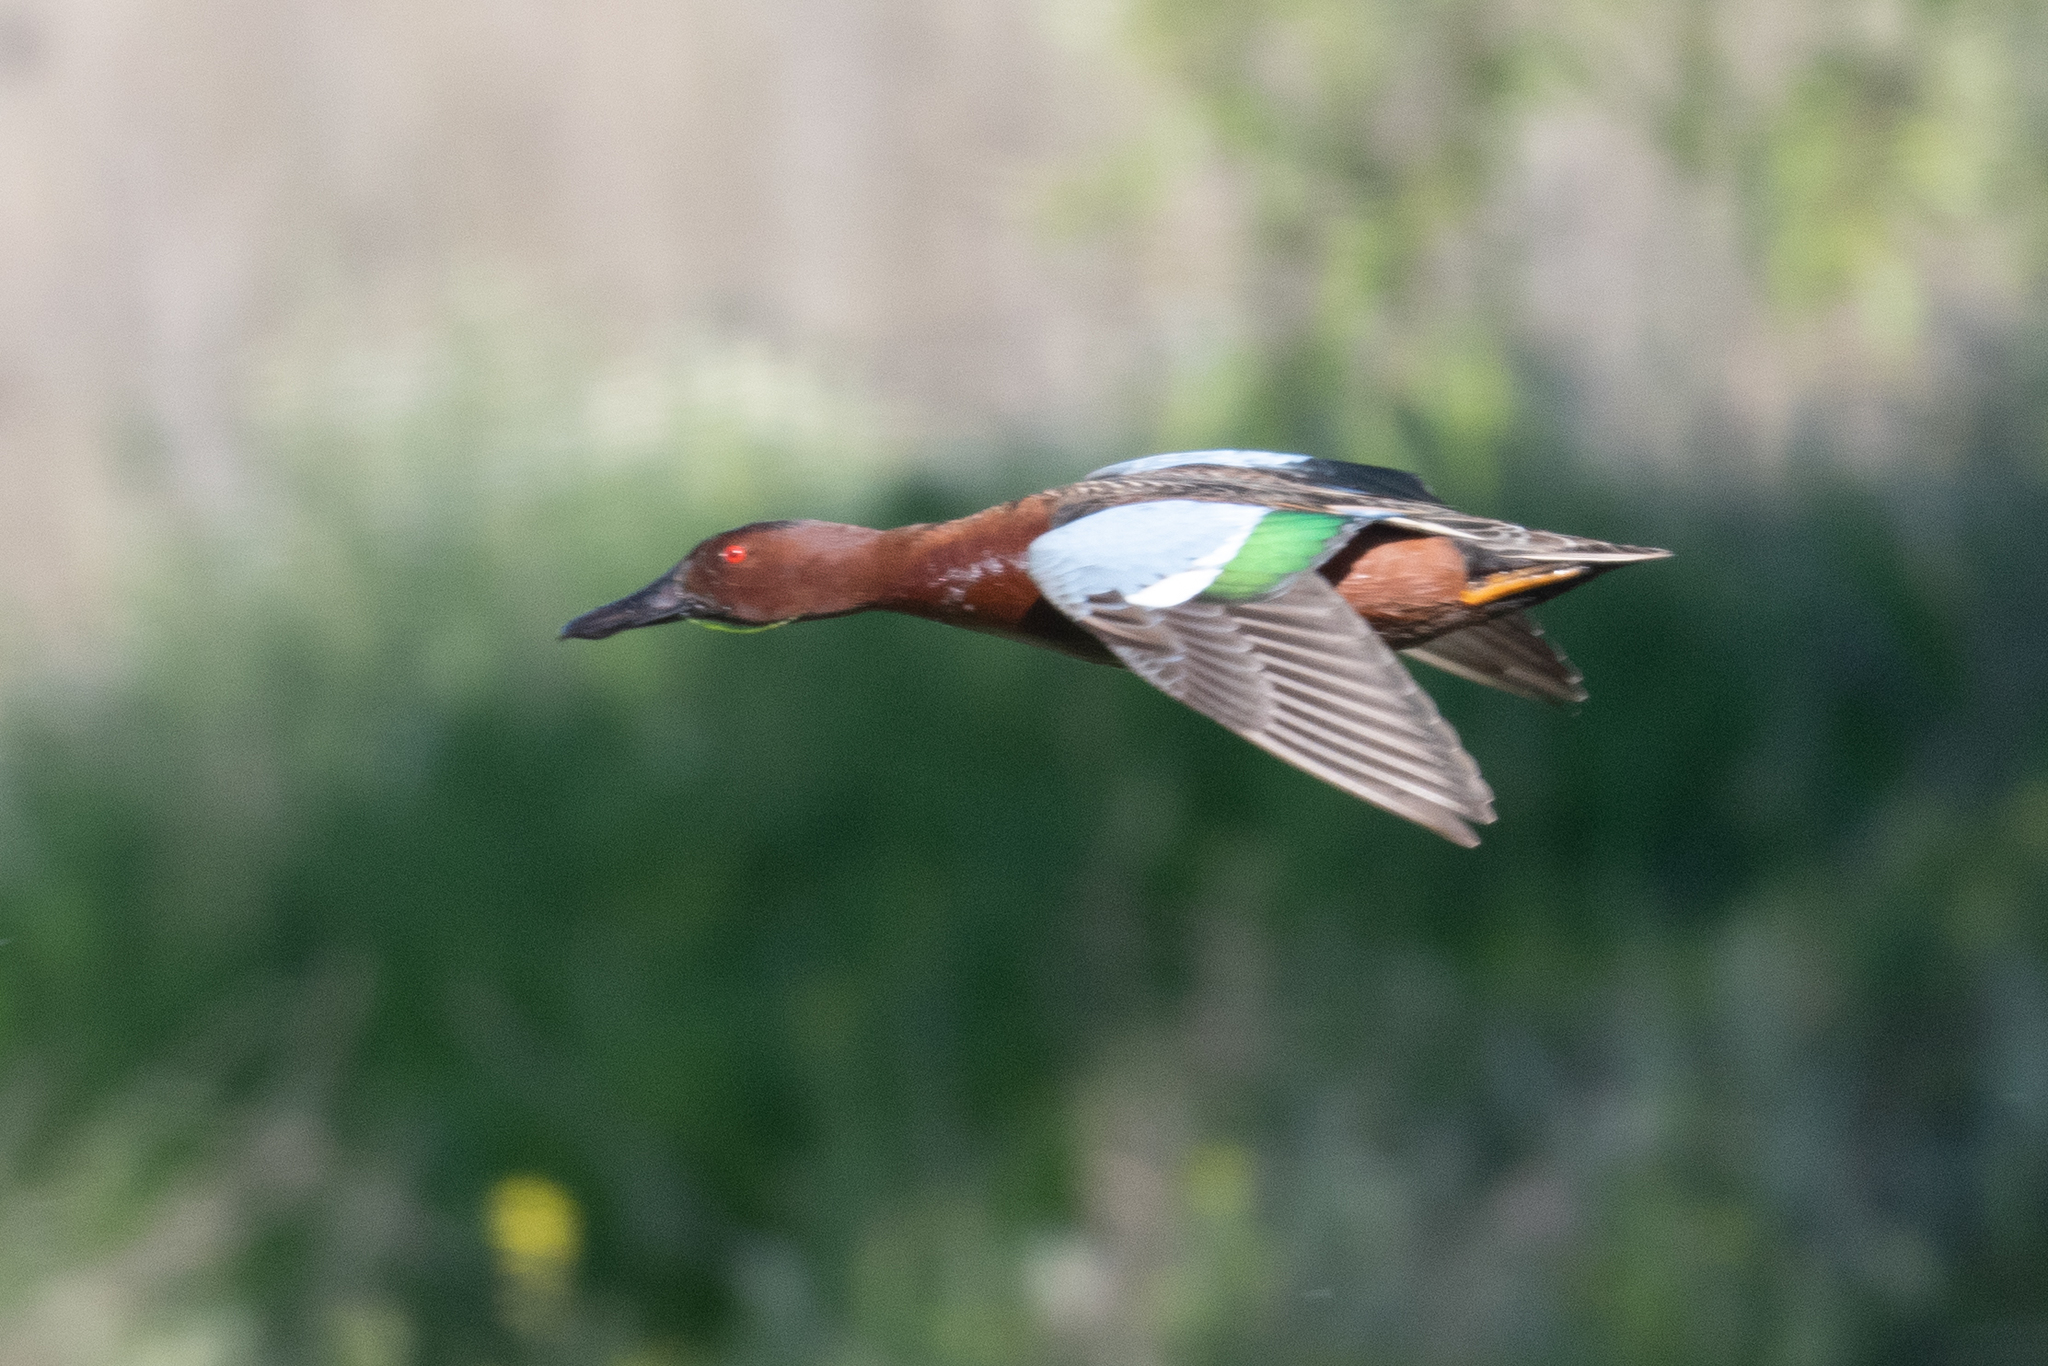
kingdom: Animalia
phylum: Chordata
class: Aves
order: Anseriformes
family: Anatidae
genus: Spatula
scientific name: Spatula cyanoptera
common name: Cinnamon teal
